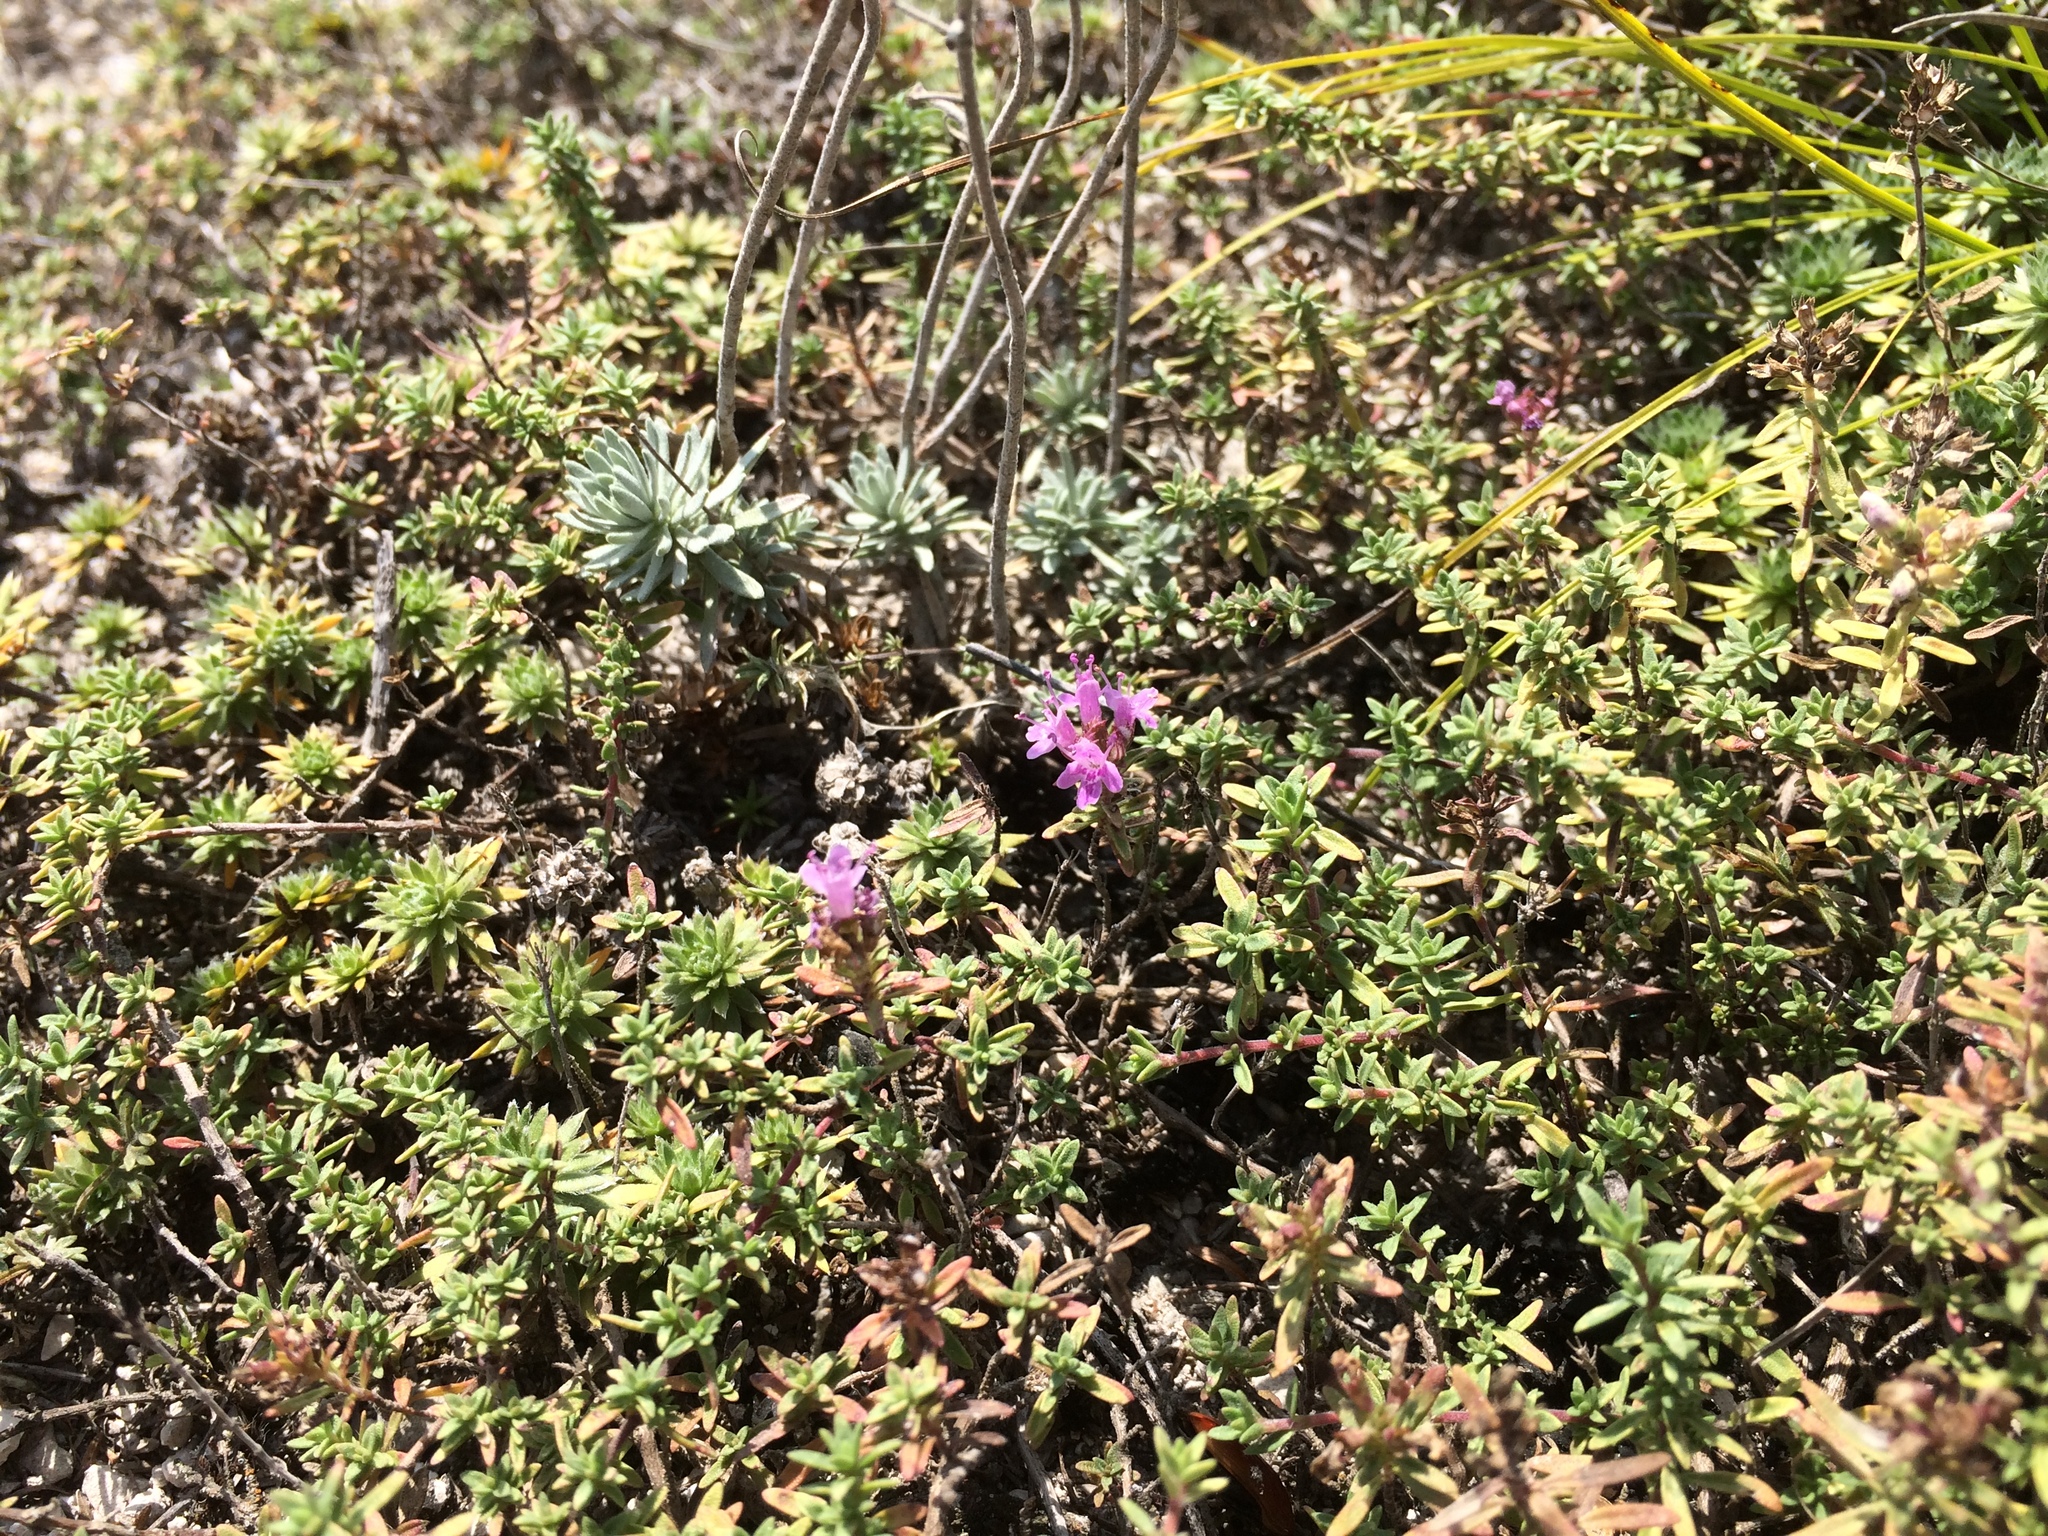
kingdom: Plantae
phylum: Tracheophyta
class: Magnoliopsida
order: Lamiales
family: Lamiaceae
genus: Thymus
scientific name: Thymus calcareus
